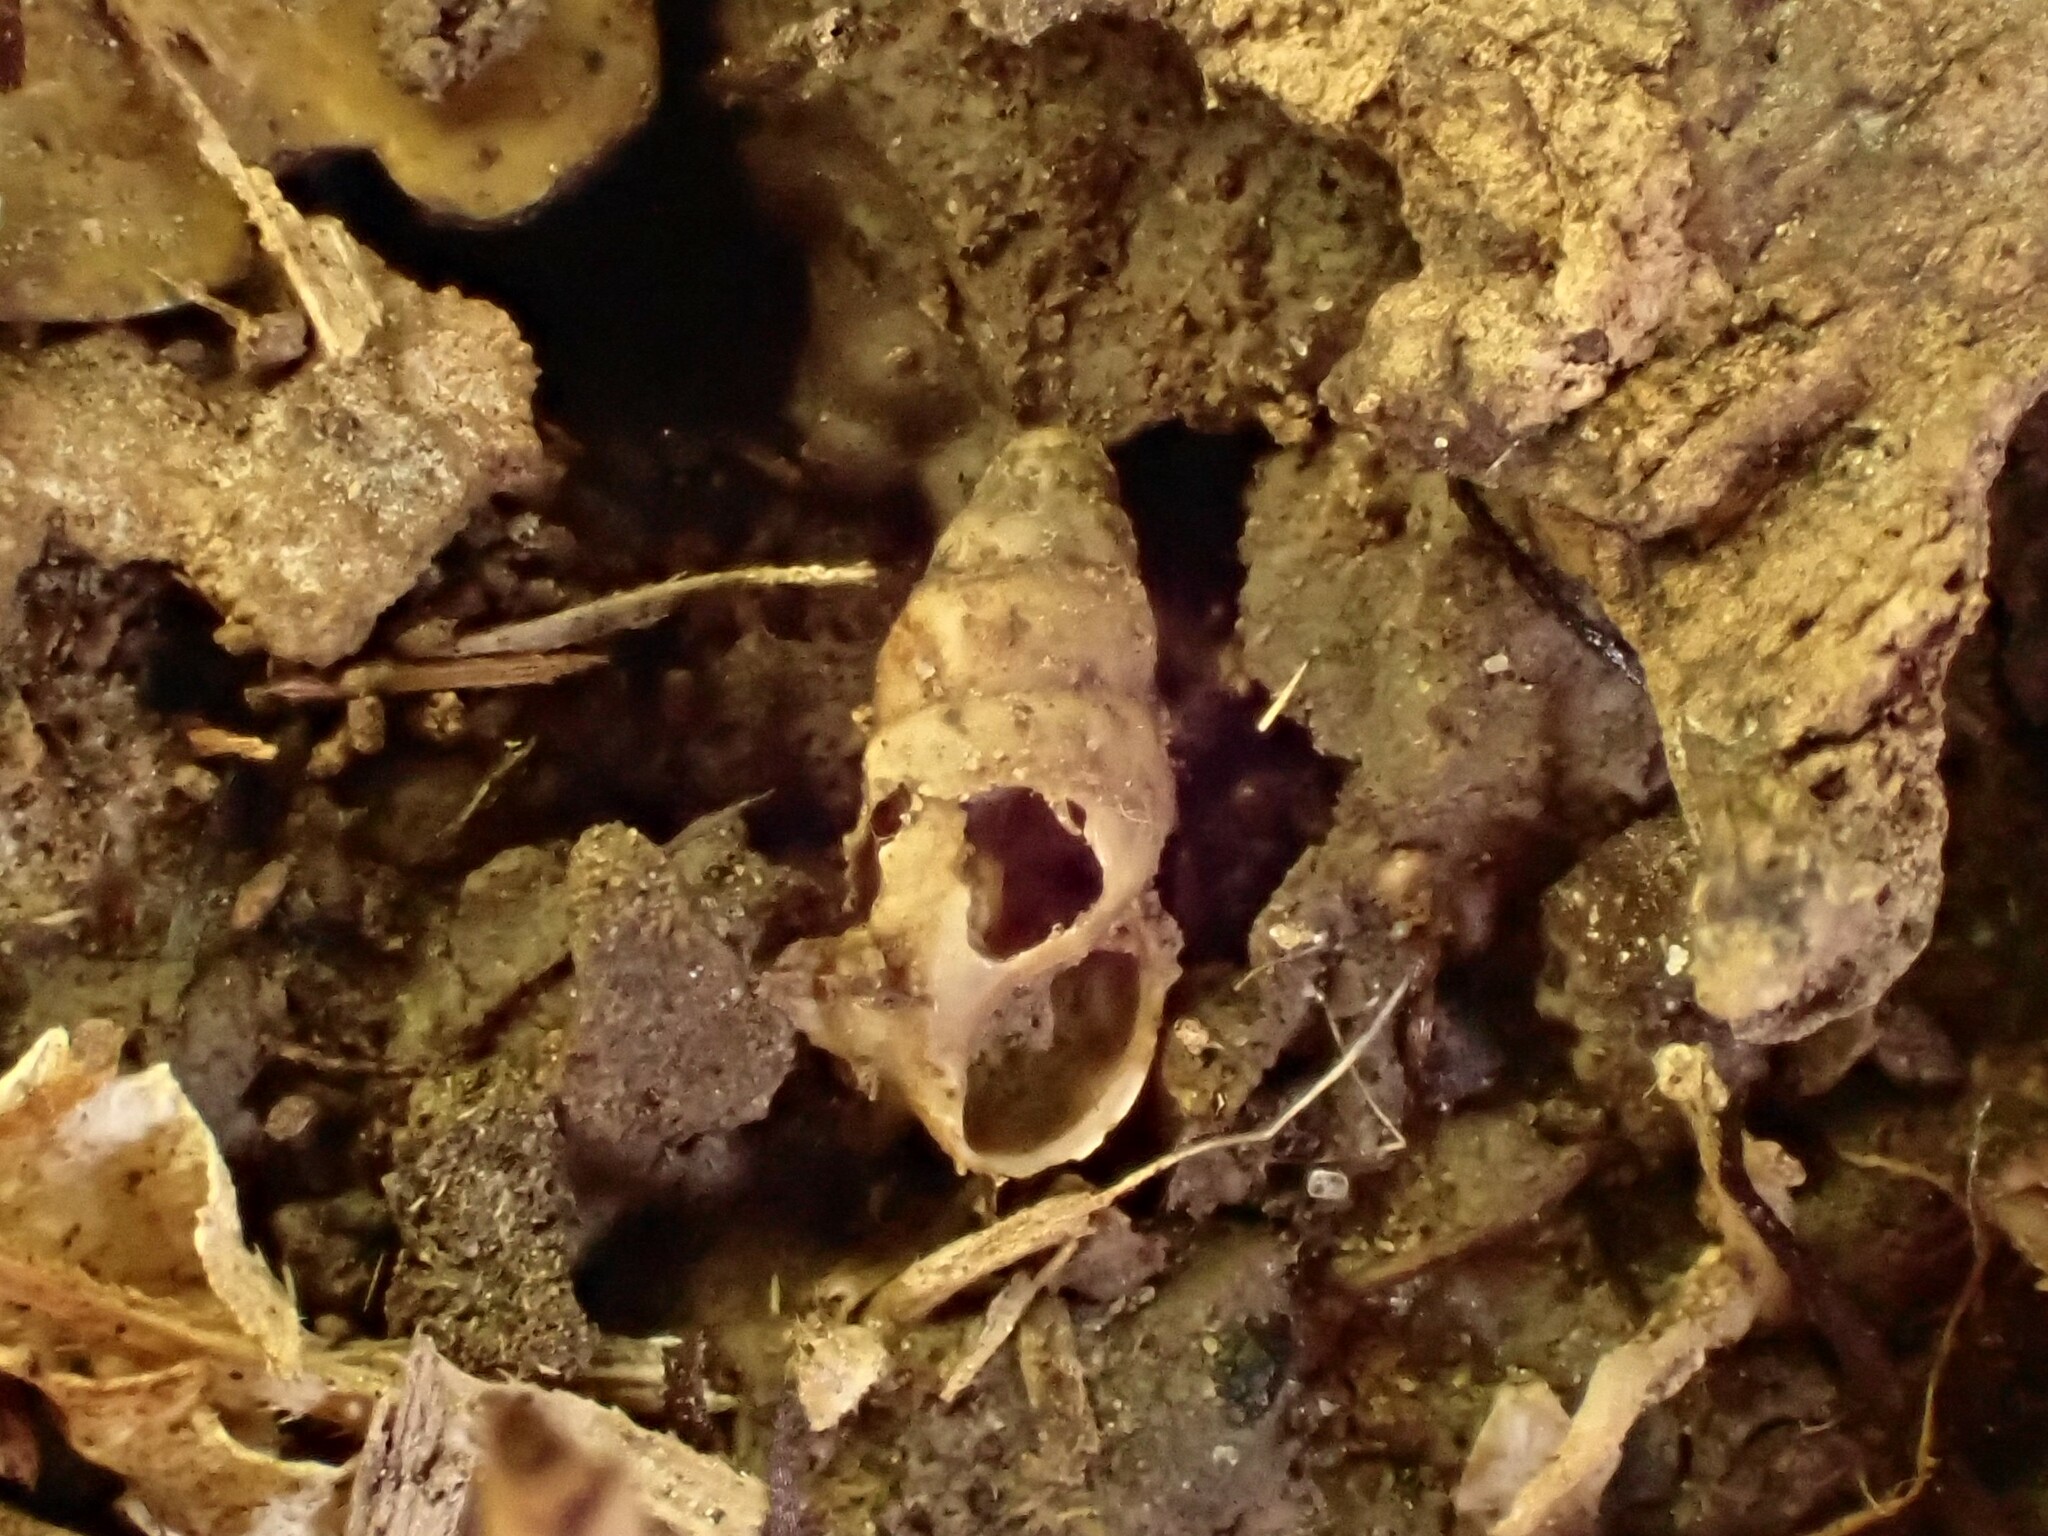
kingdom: Animalia
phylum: Mollusca
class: Gastropoda
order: Stylommatophora
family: Cochlicopidae
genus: Cochlicopa
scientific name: Cochlicopa lubrica
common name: Glossy pillar snail
